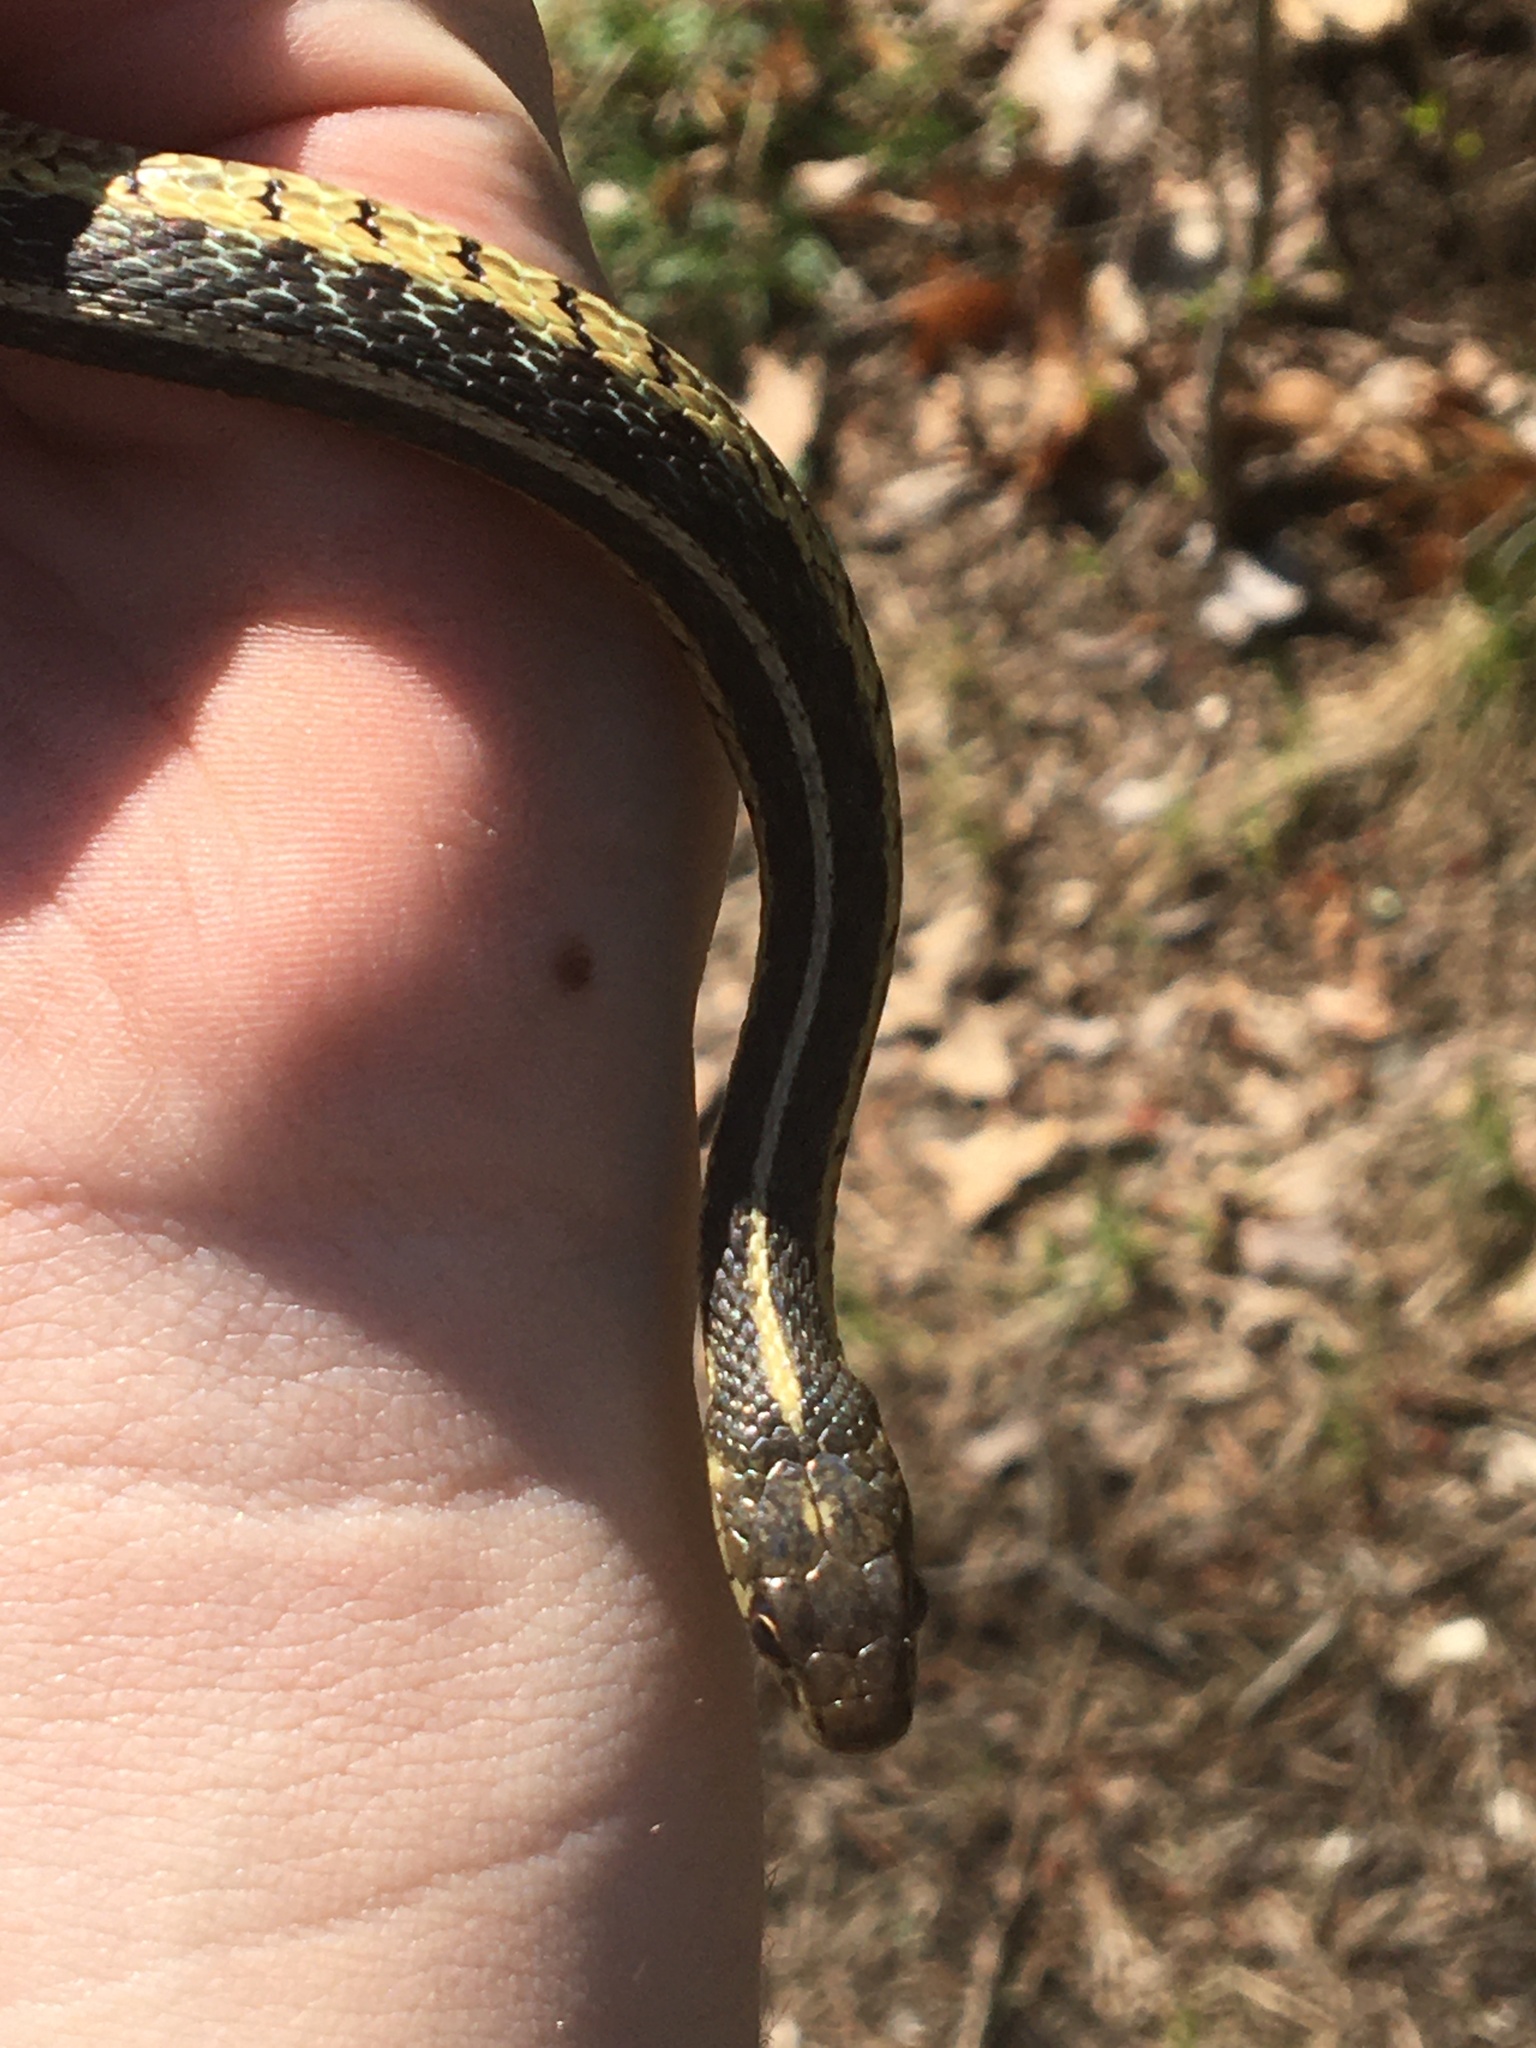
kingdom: Animalia
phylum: Chordata
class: Squamata
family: Colubridae
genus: Thamnophis
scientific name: Thamnophis sirtalis
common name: Common garter snake
